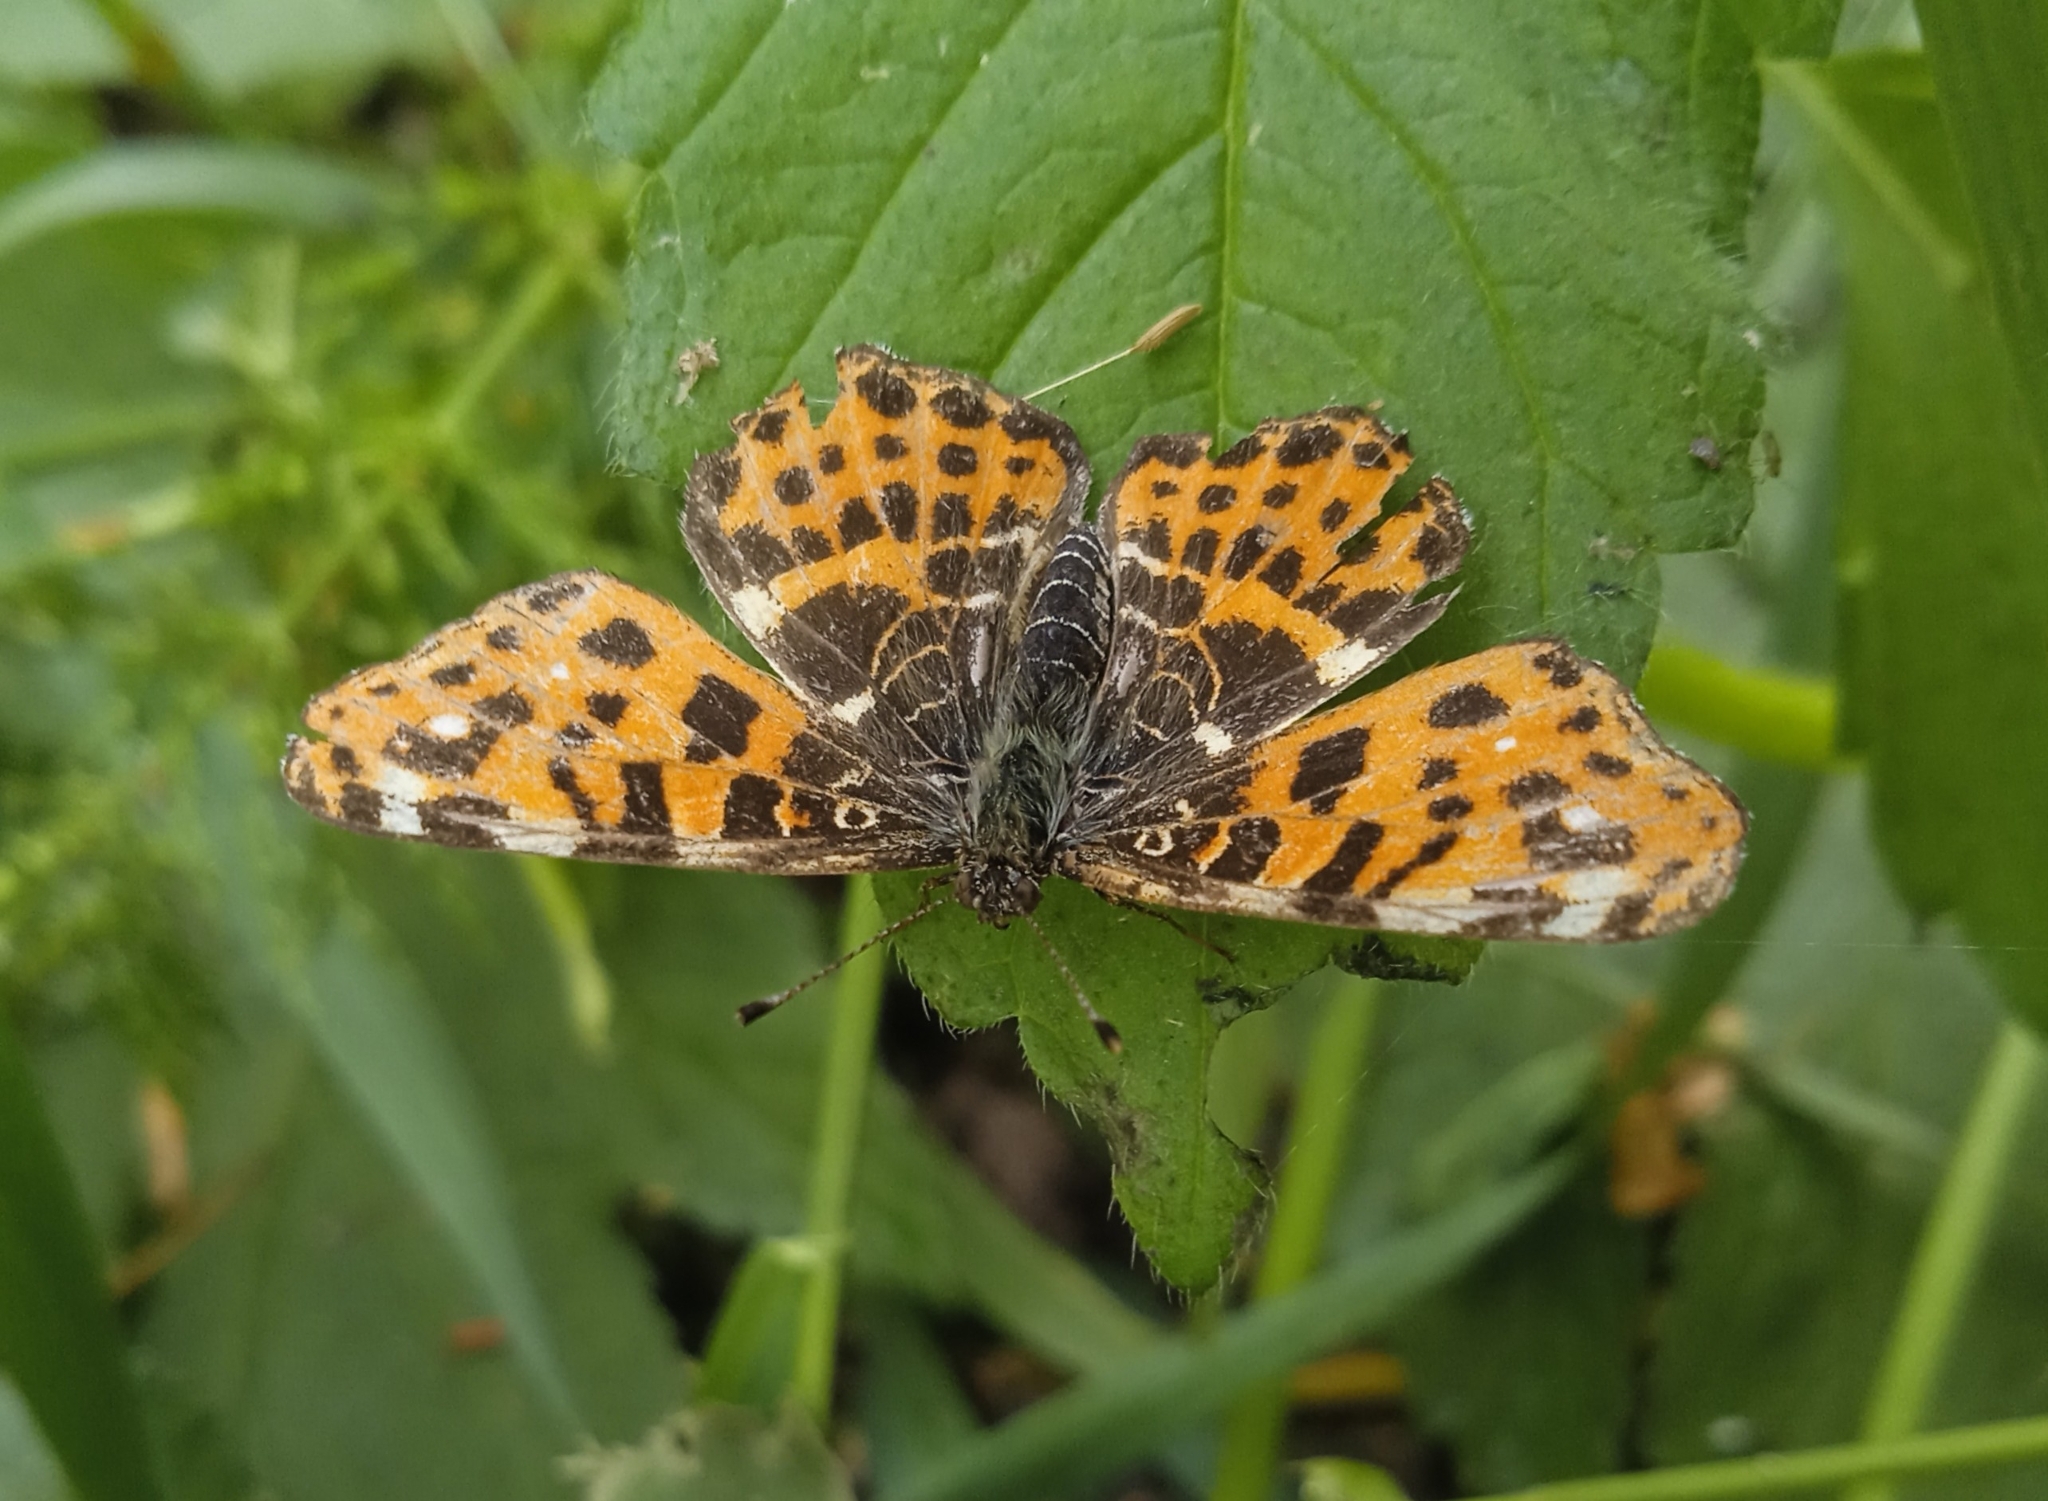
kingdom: Animalia
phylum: Arthropoda
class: Insecta
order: Lepidoptera
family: Nymphalidae
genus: Araschnia
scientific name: Araschnia levana
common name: Map butterfly
